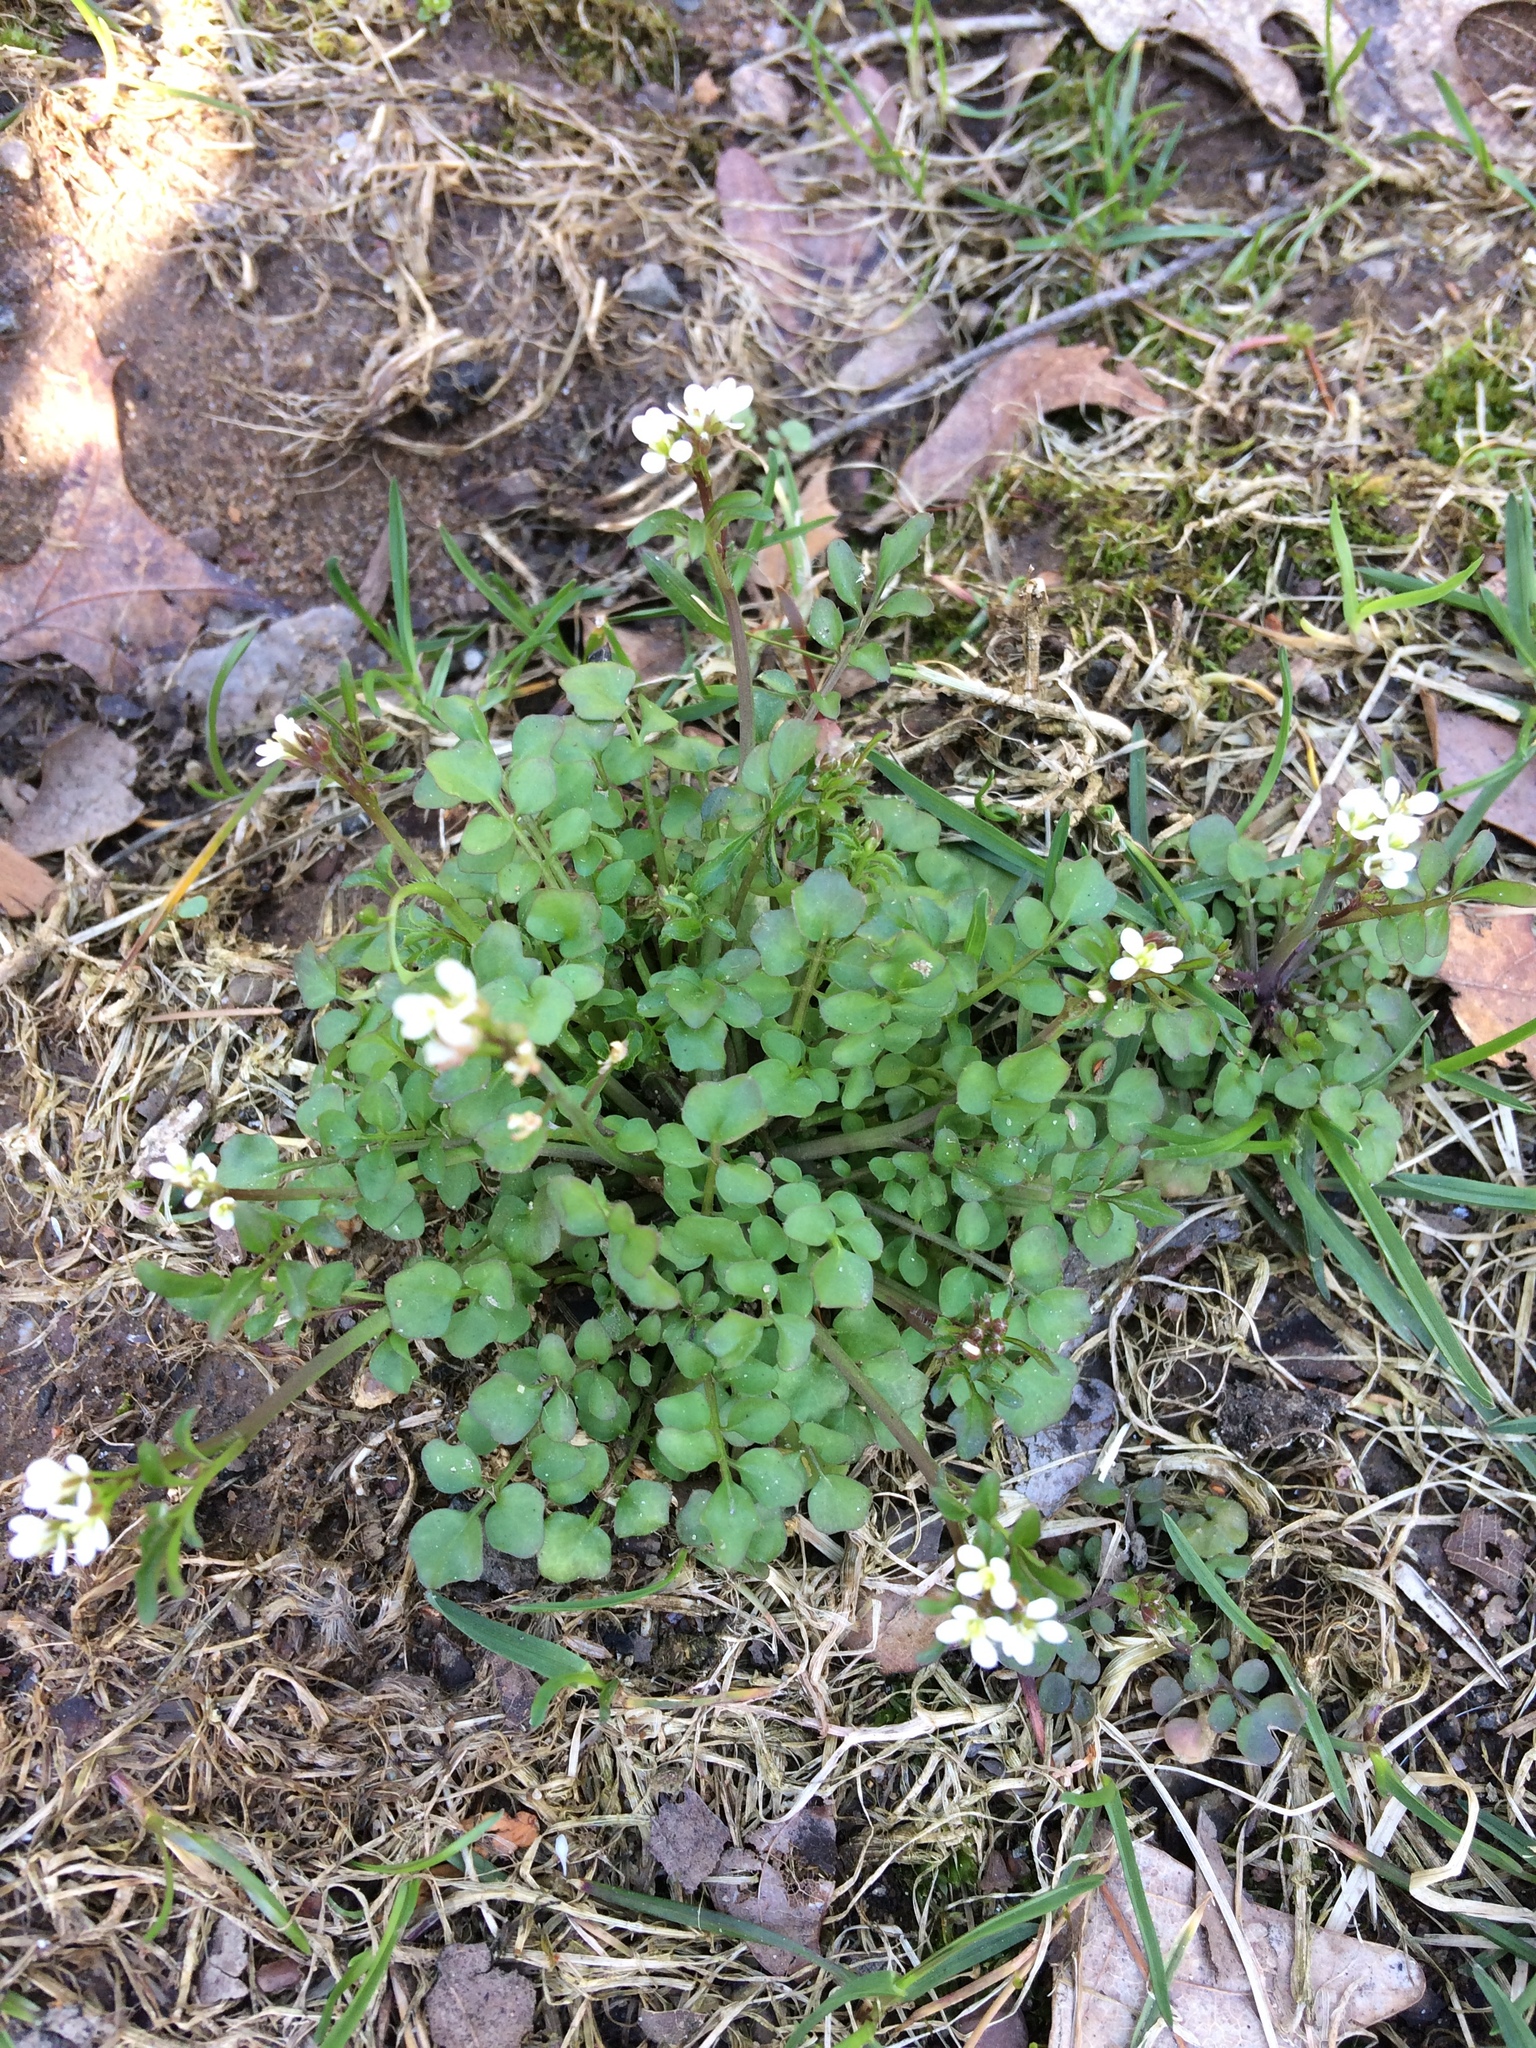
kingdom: Plantae
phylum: Tracheophyta
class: Magnoliopsida
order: Brassicales
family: Brassicaceae
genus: Cardamine
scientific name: Cardamine hirsuta
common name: Hairy bittercress
